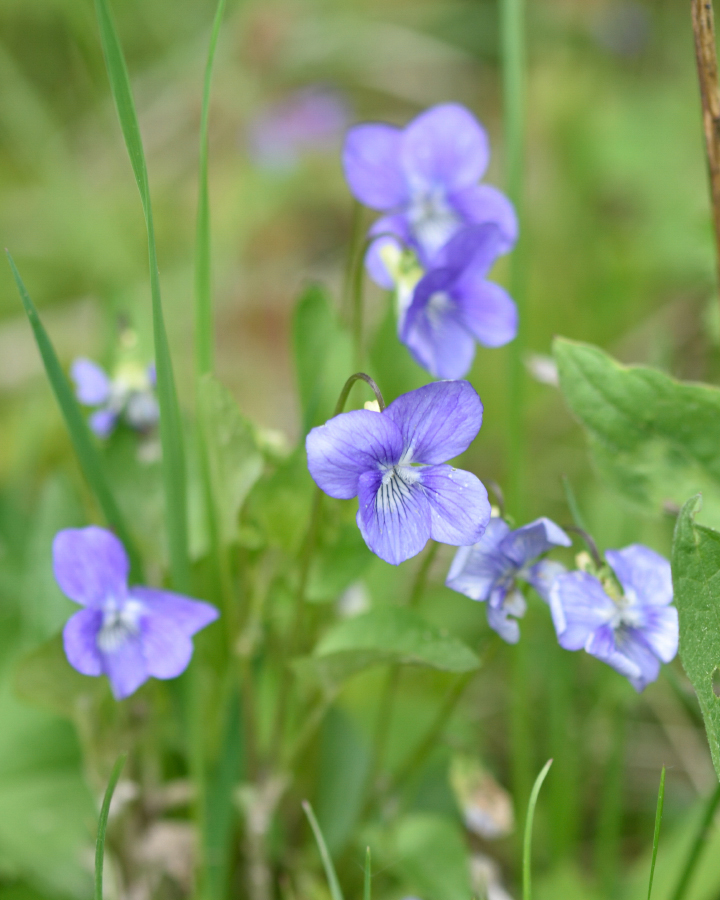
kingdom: Plantae
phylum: Tracheophyta
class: Magnoliopsida
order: Malpighiales
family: Violaceae
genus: Viola
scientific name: Viola canina
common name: Heath dog-violet
